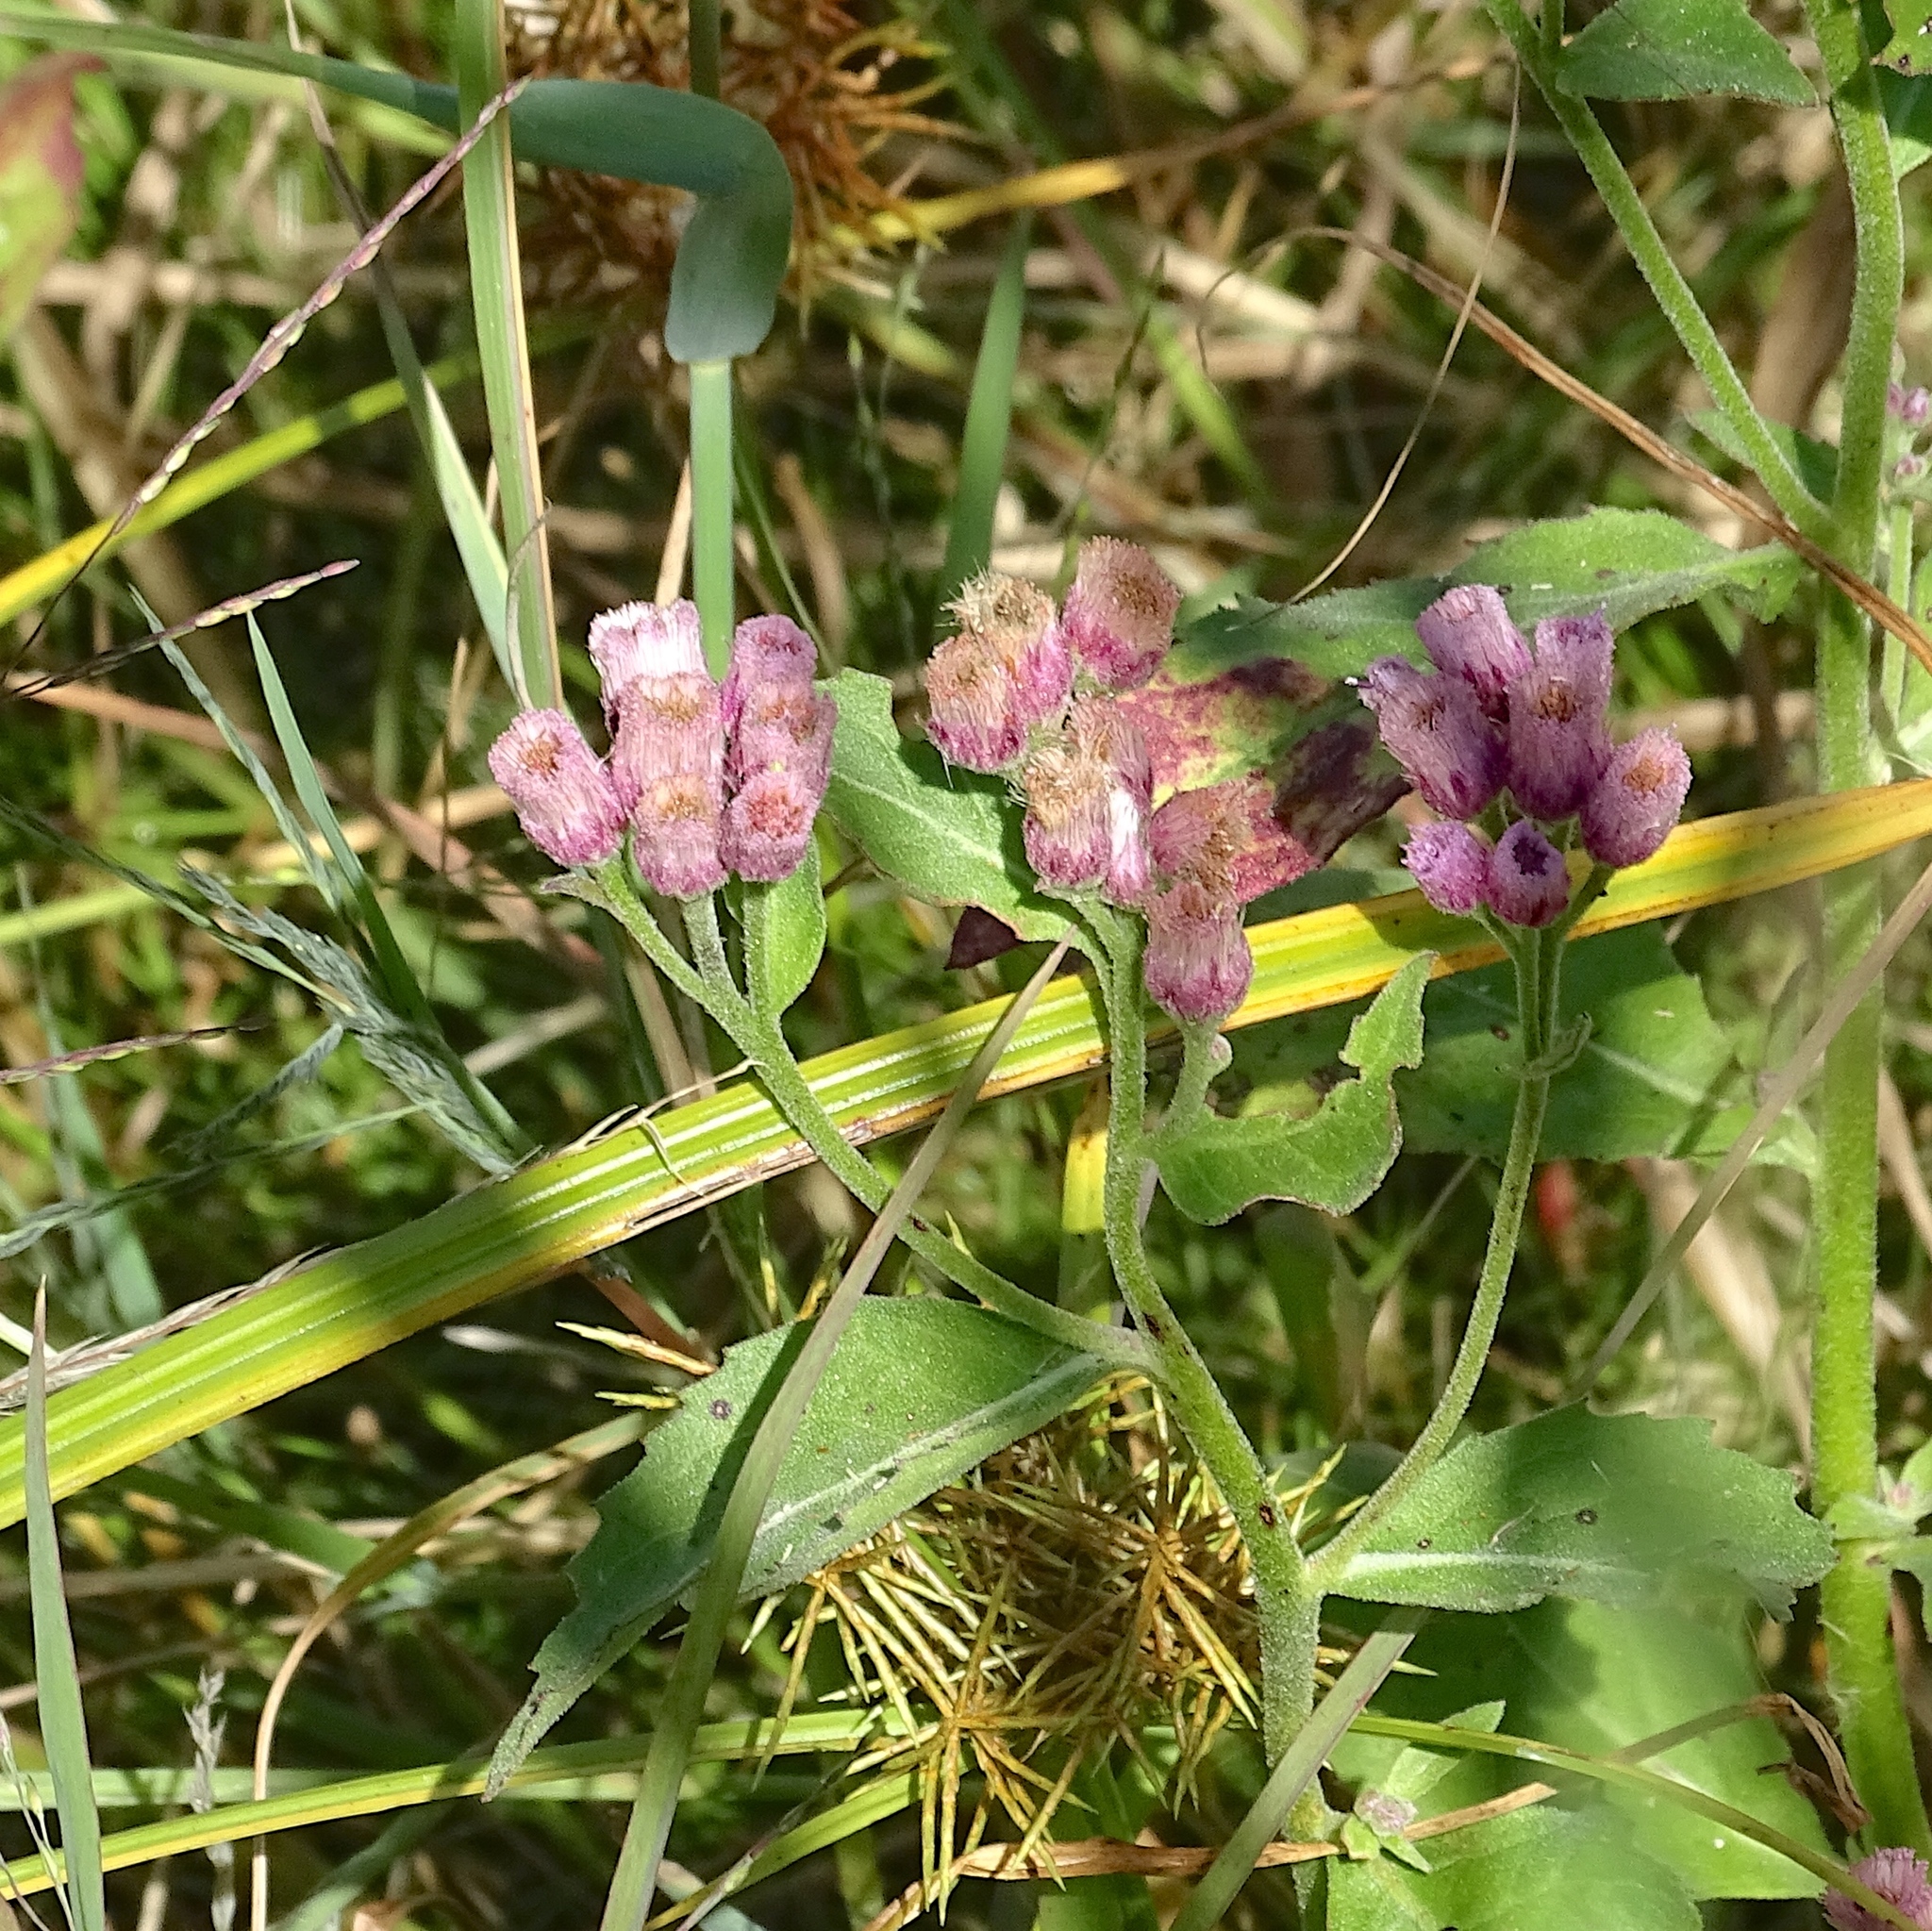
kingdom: Plantae
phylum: Tracheophyta
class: Magnoliopsida
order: Asterales
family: Asteraceae
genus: Pluchea
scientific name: Pluchea odorata
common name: Saltmarsh fleabane
